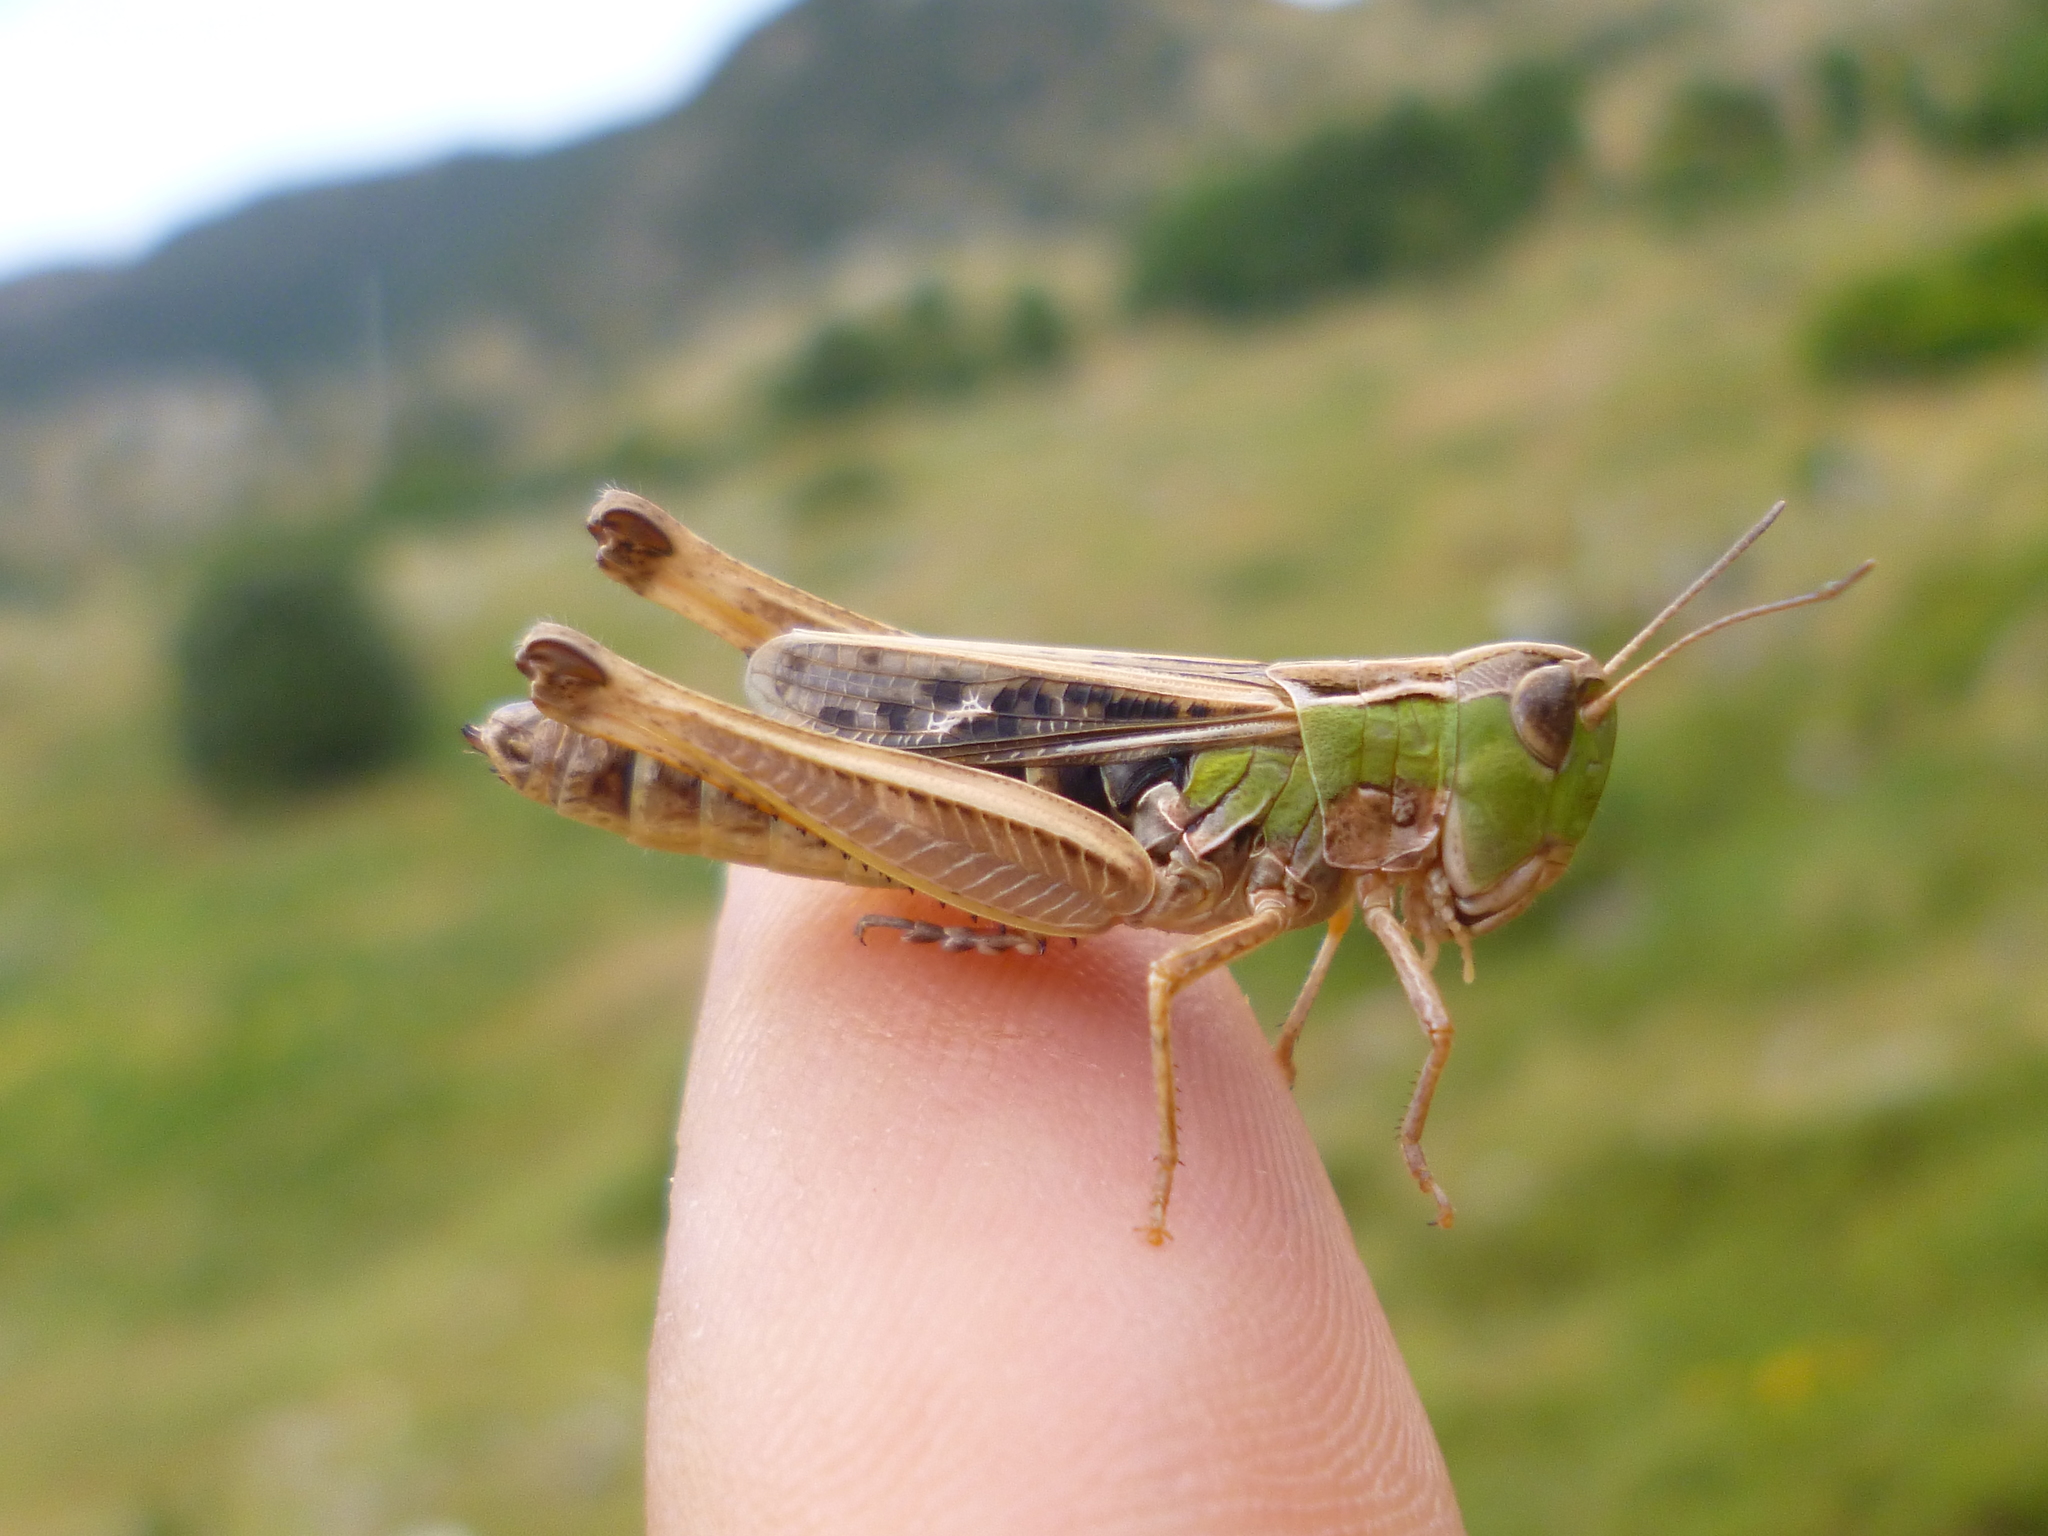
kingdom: Animalia
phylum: Arthropoda
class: Insecta
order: Orthoptera
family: Acrididae
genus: Stenobothrus
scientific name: Stenobothrus rubicundulus
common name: Wing-buzzing grasshopper
